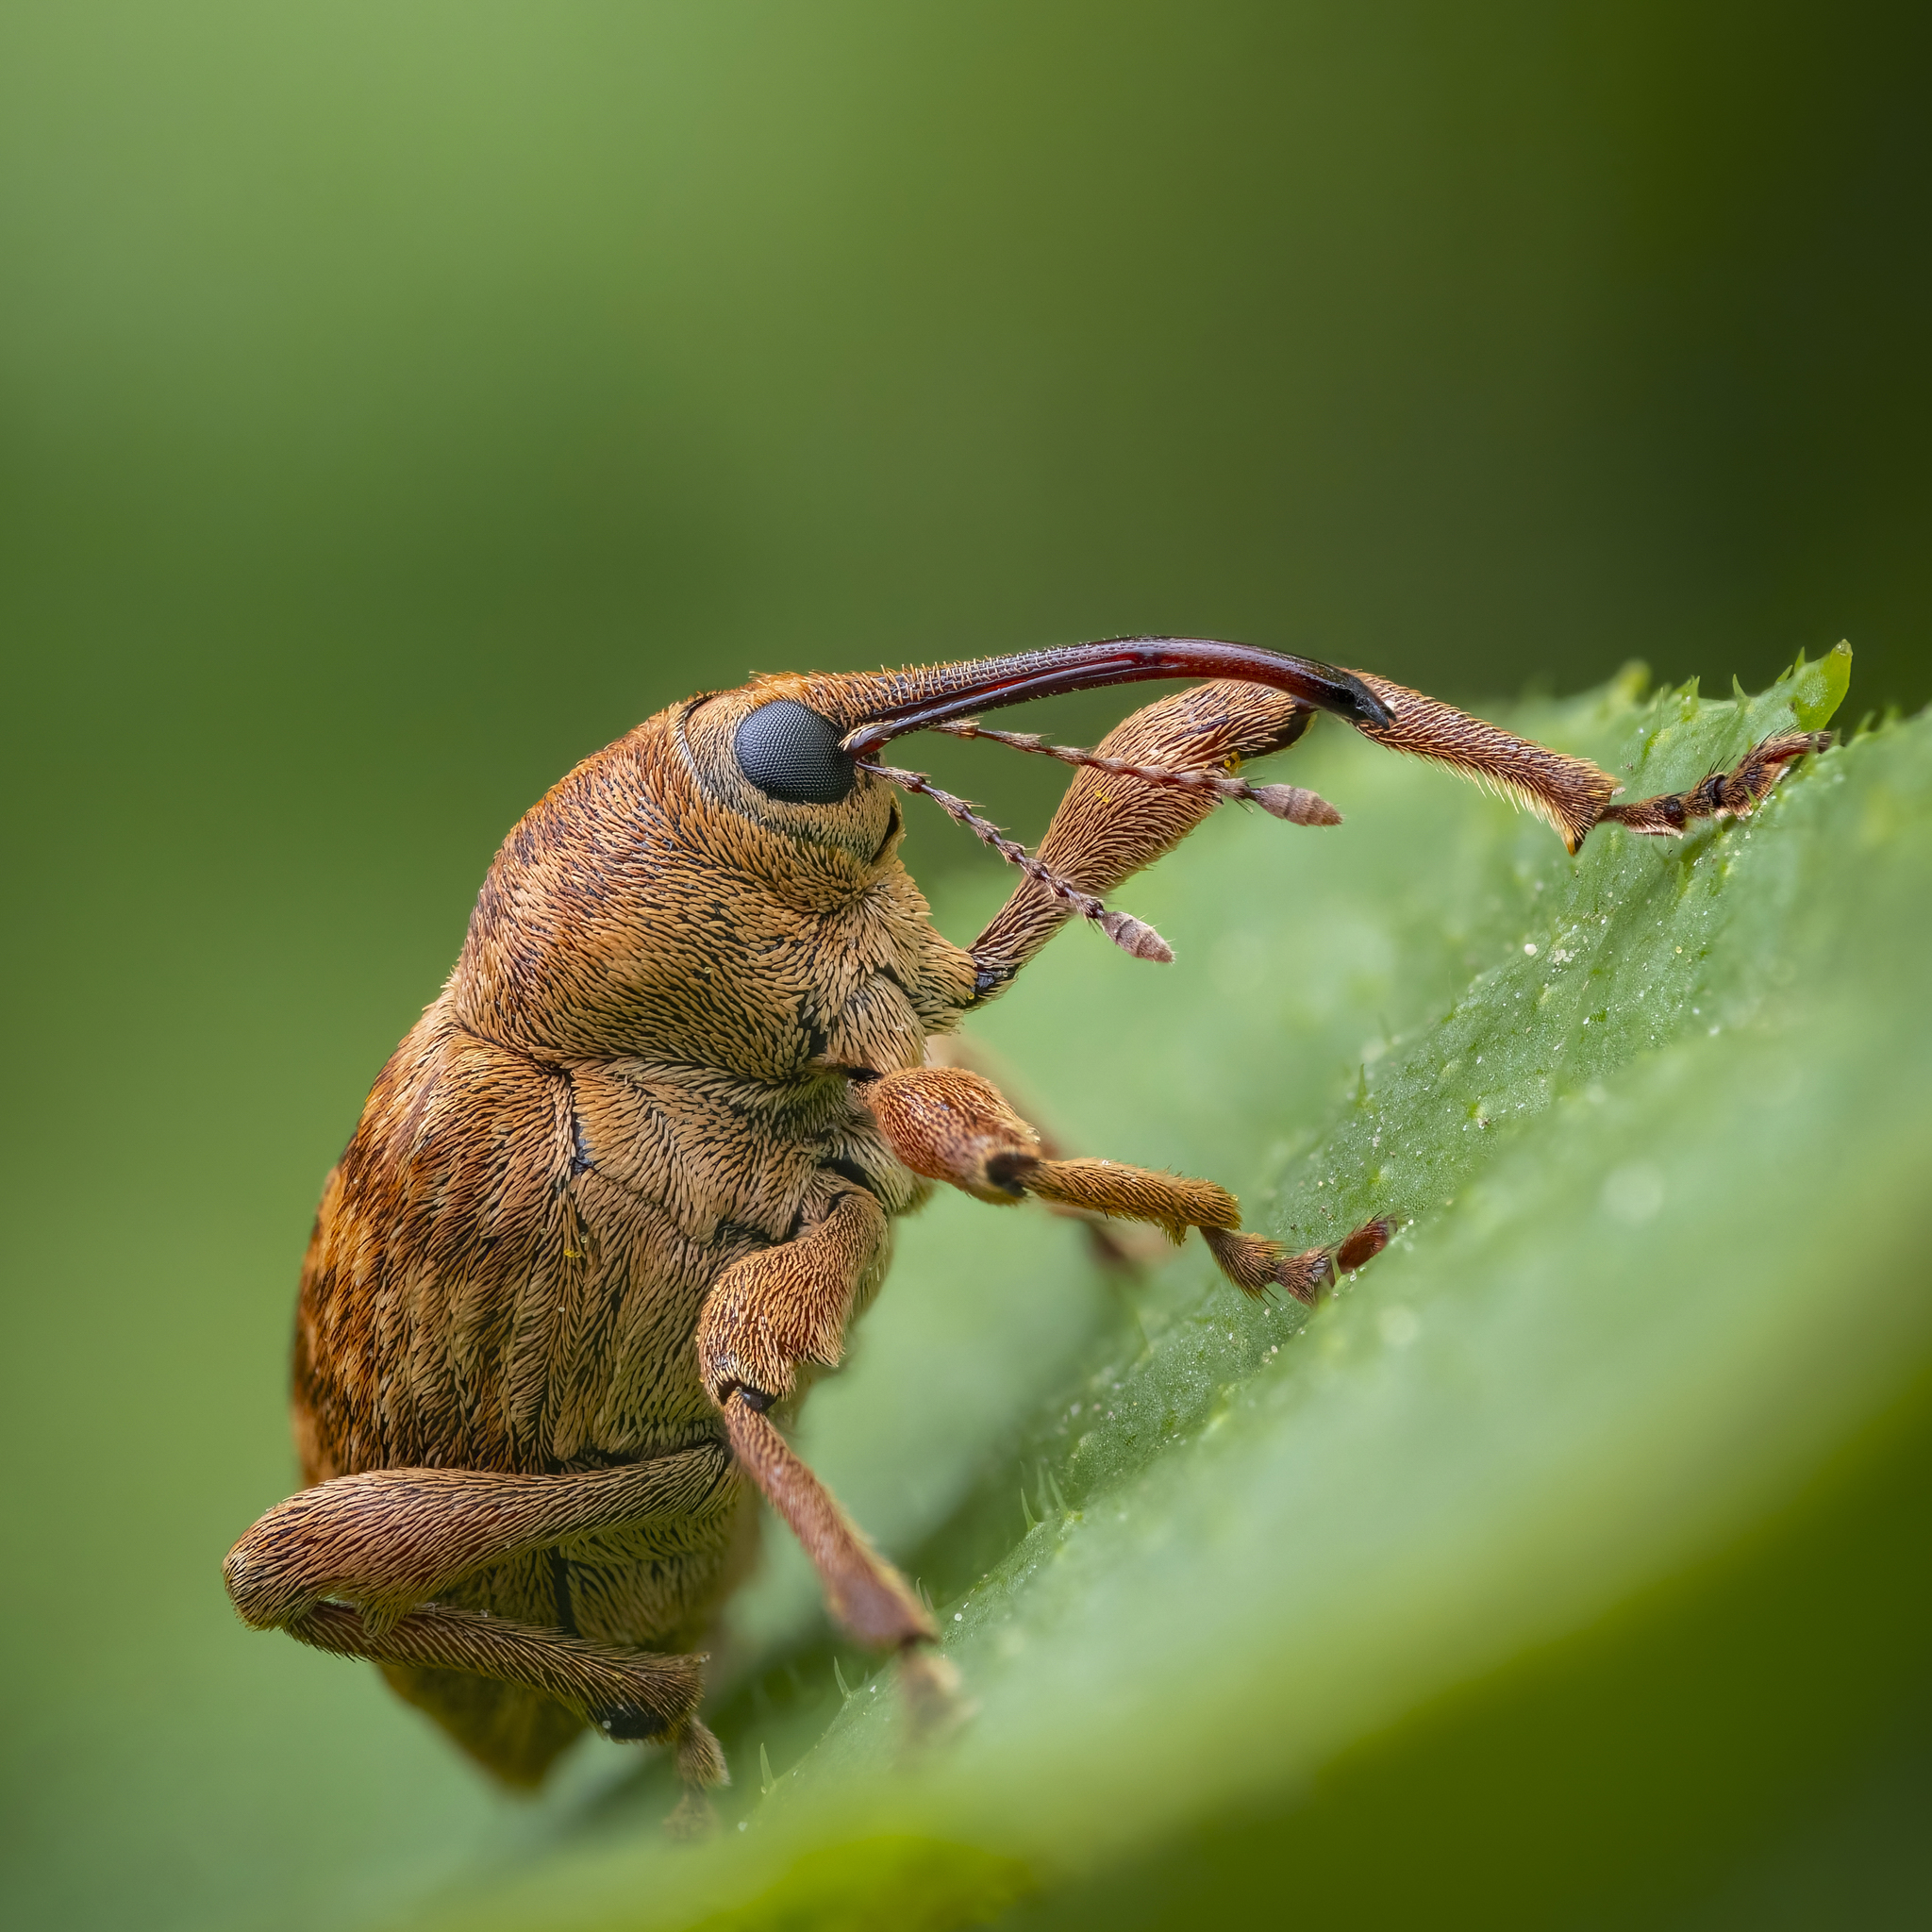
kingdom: Animalia
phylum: Arthropoda
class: Insecta
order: Coleoptera
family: Curculionidae
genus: Curculio
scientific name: Curculio venosus
